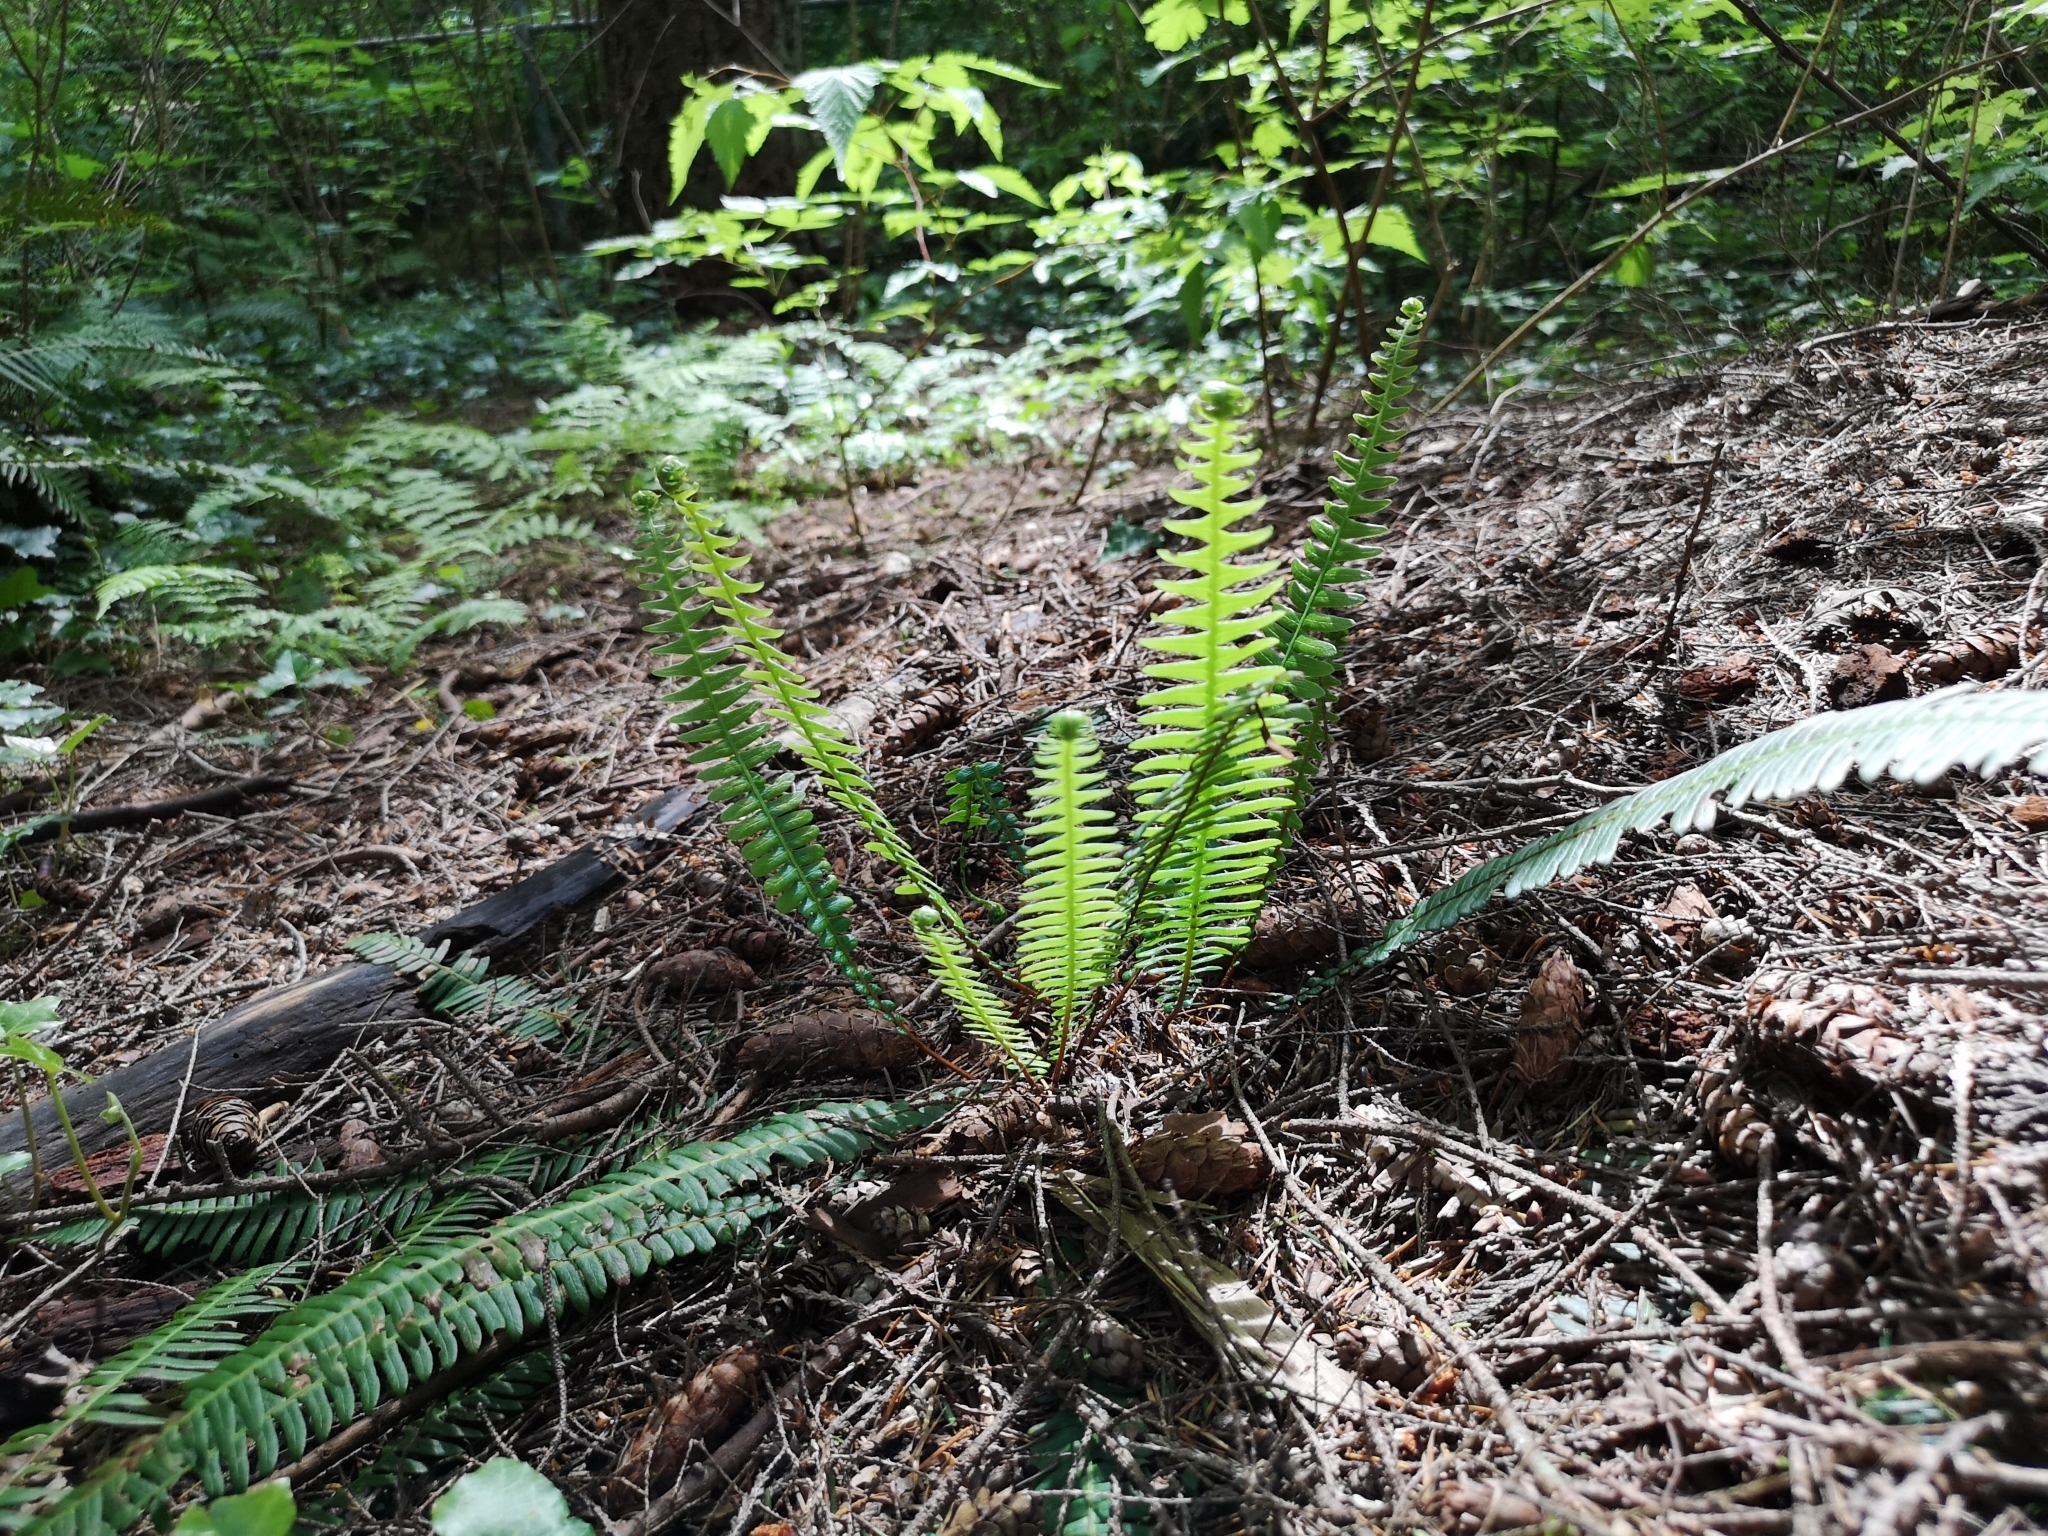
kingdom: Plantae
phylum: Tracheophyta
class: Polypodiopsida
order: Polypodiales
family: Blechnaceae
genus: Struthiopteris
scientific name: Struthiopteris spicant
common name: Deer fern
